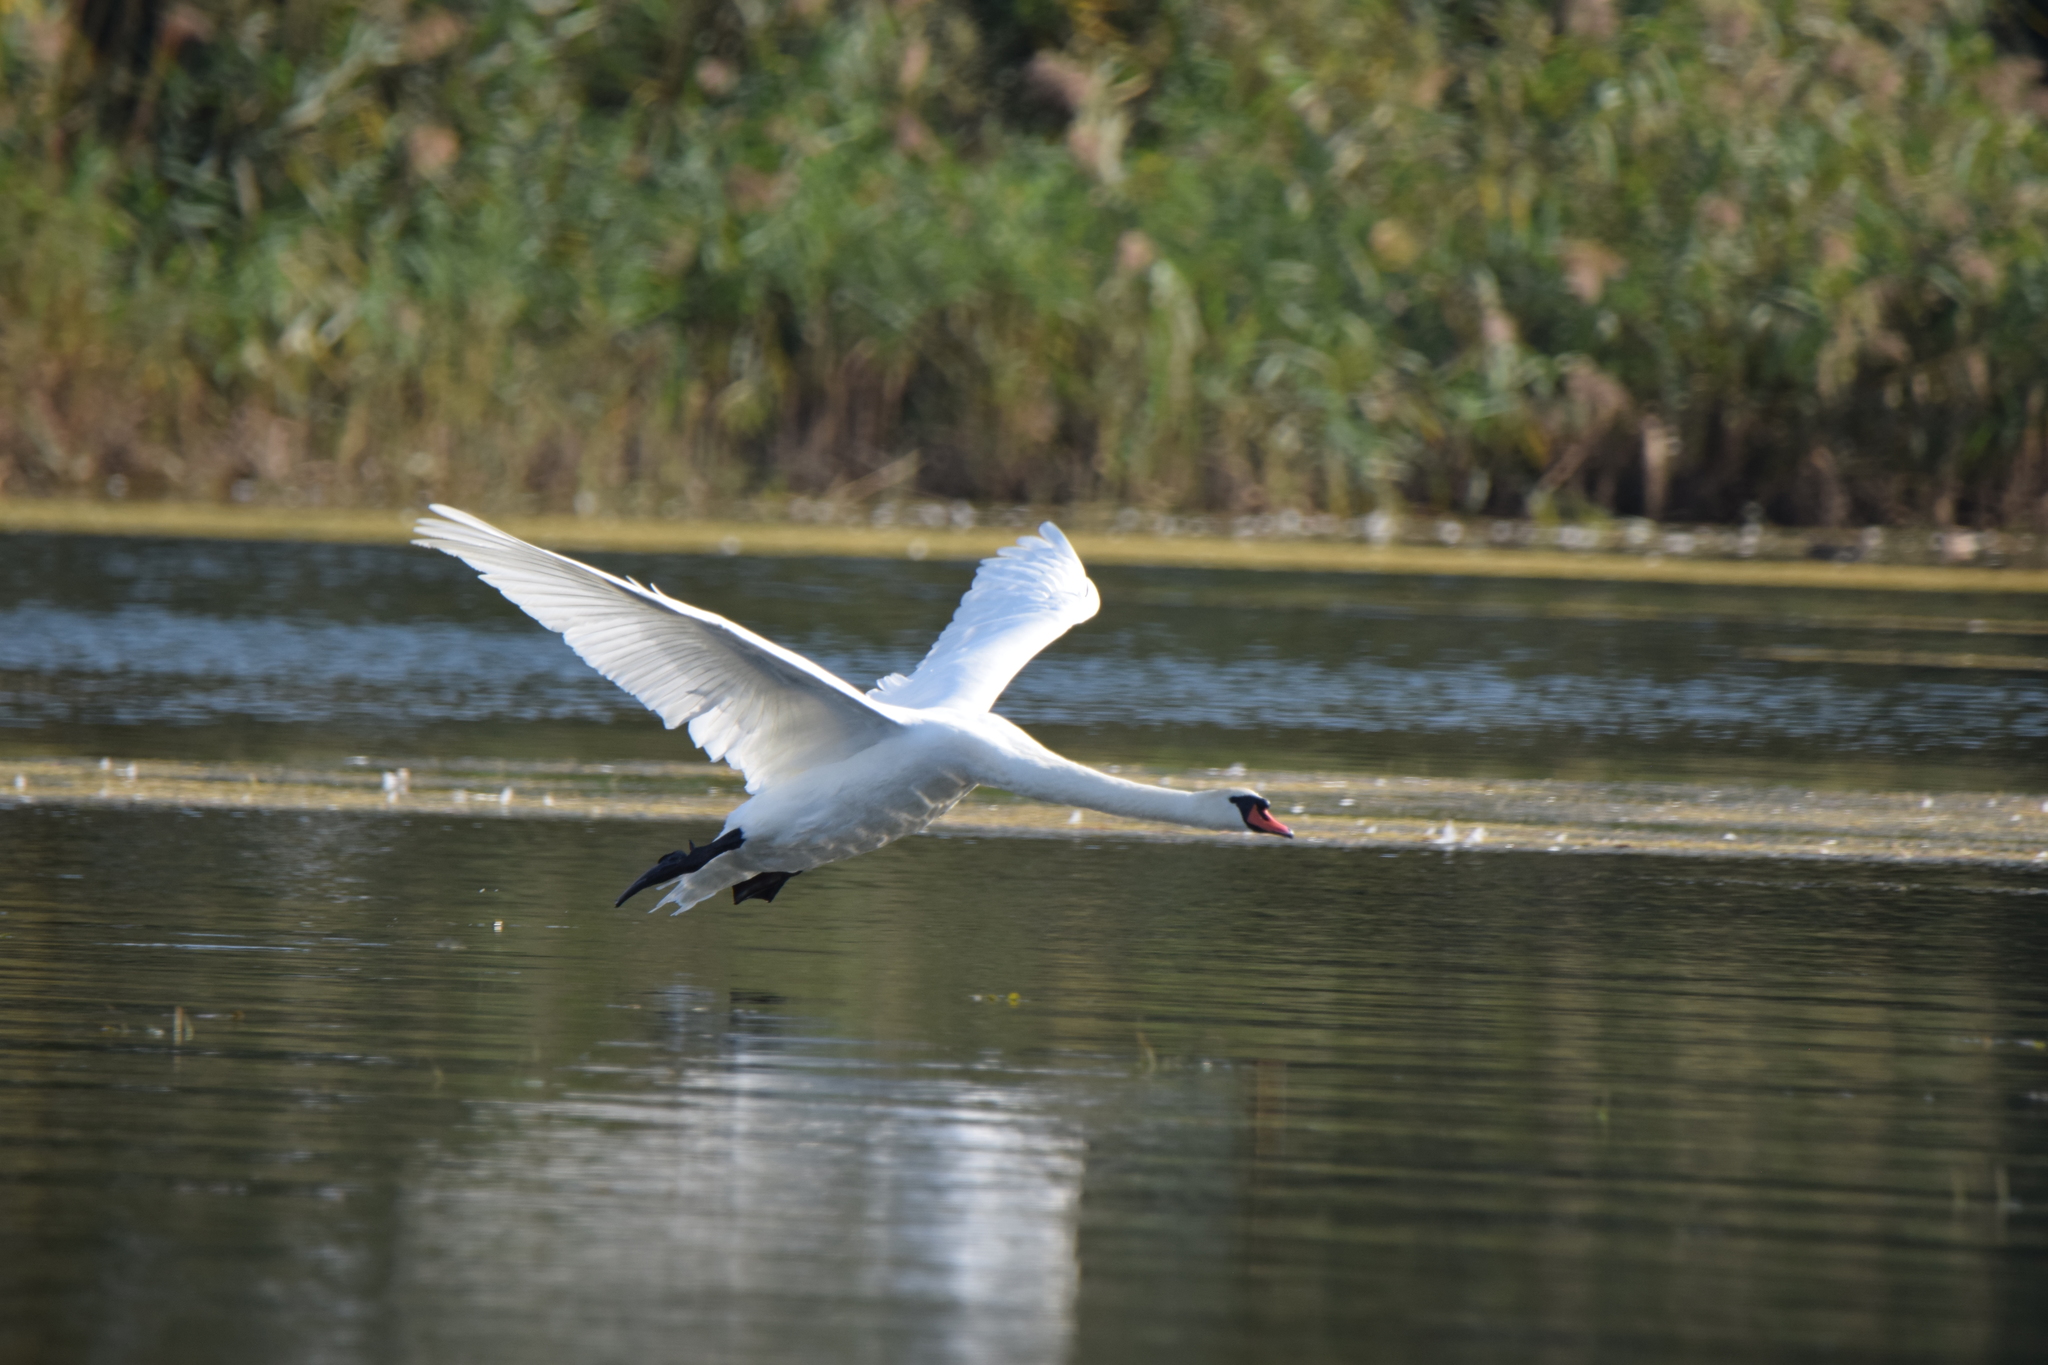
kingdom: Animalia
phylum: Chordata
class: Aves
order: Anseriformes
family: Anatidae
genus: Cygnus
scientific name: Cygnus olor
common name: Mute swan
